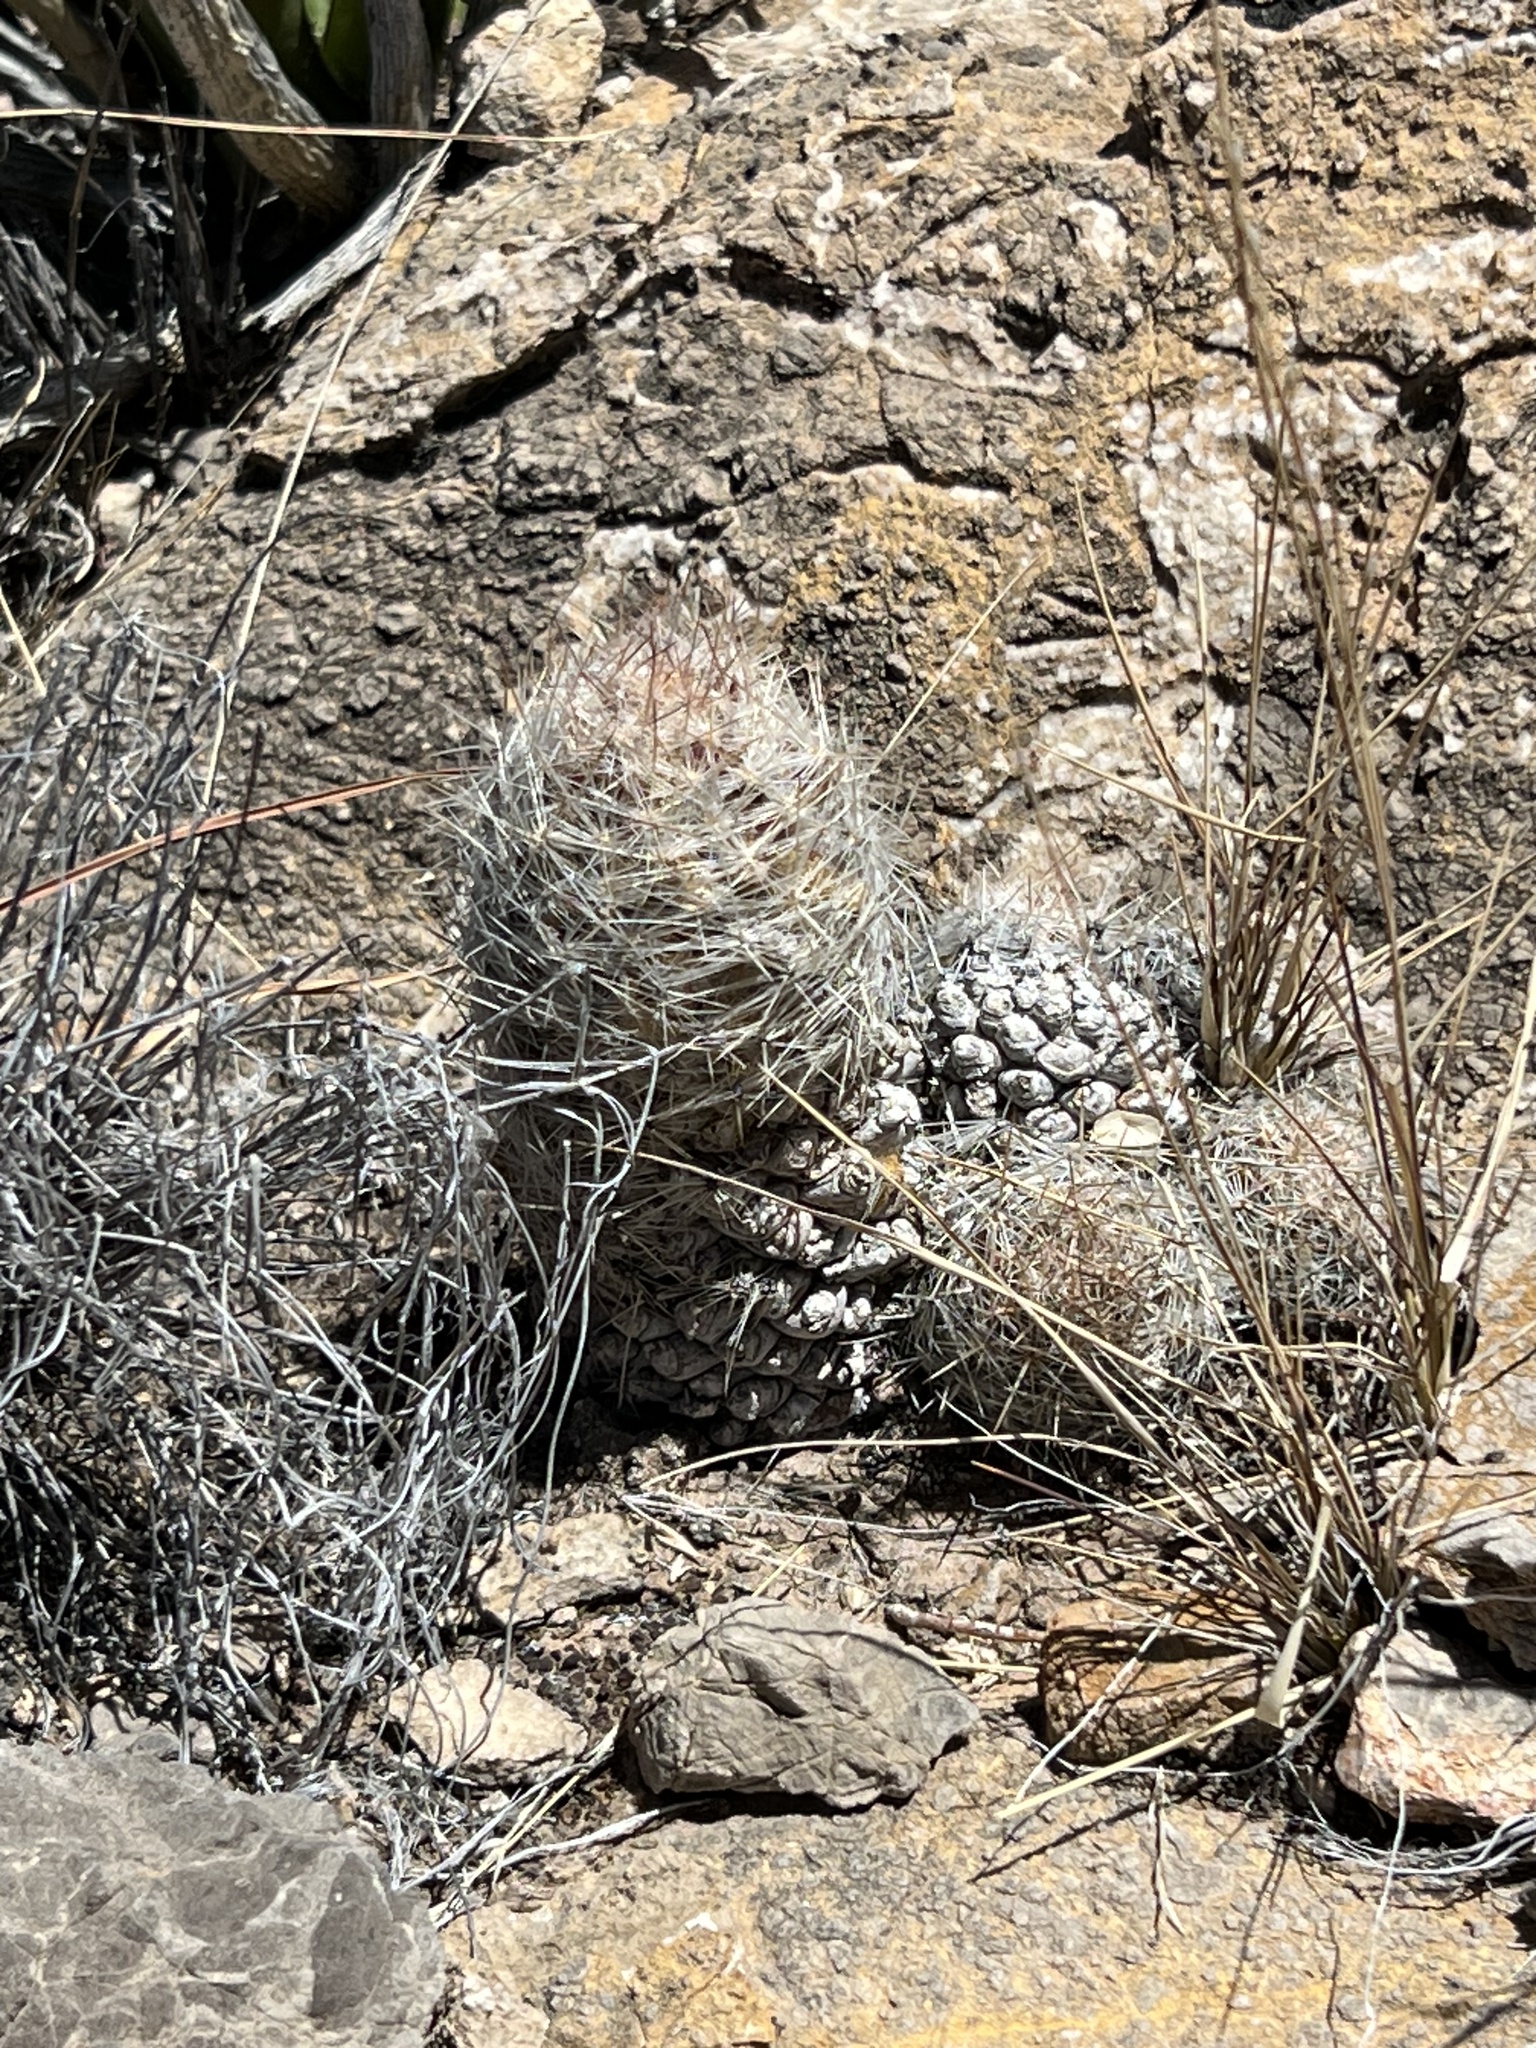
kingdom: Plantae
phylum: Tracheophyta
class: Magnoliopsida
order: Caryophyllales
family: Cactaceae
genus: Pelecyphora
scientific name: Pelecyphora tuberculosa
